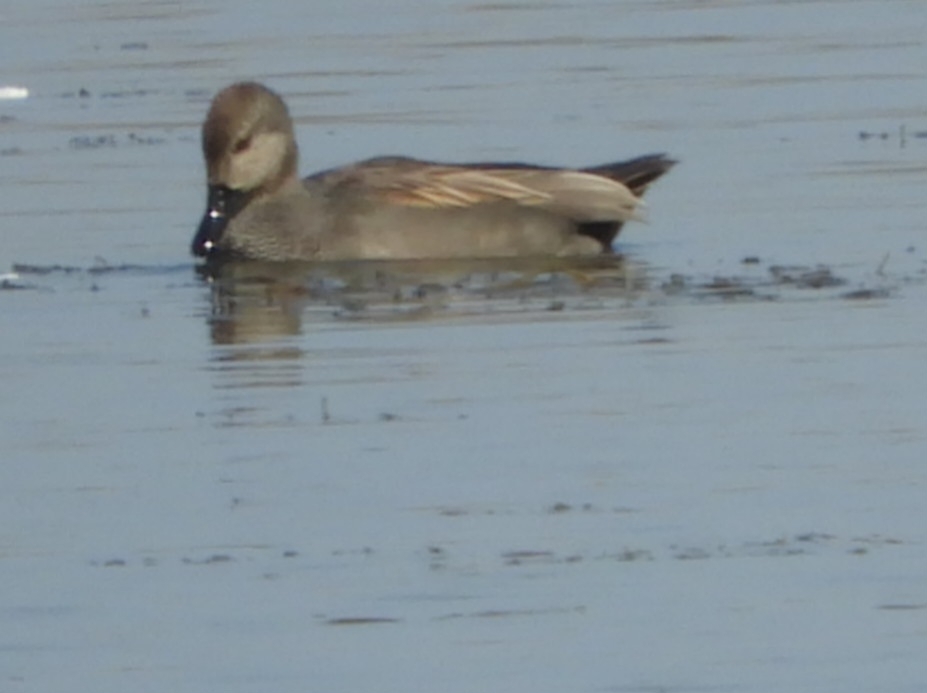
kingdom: Animalia
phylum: Chordata
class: Aves
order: Anseriformes
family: Anatidae
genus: Mareca
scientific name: Mareca strepera
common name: Gadwall
